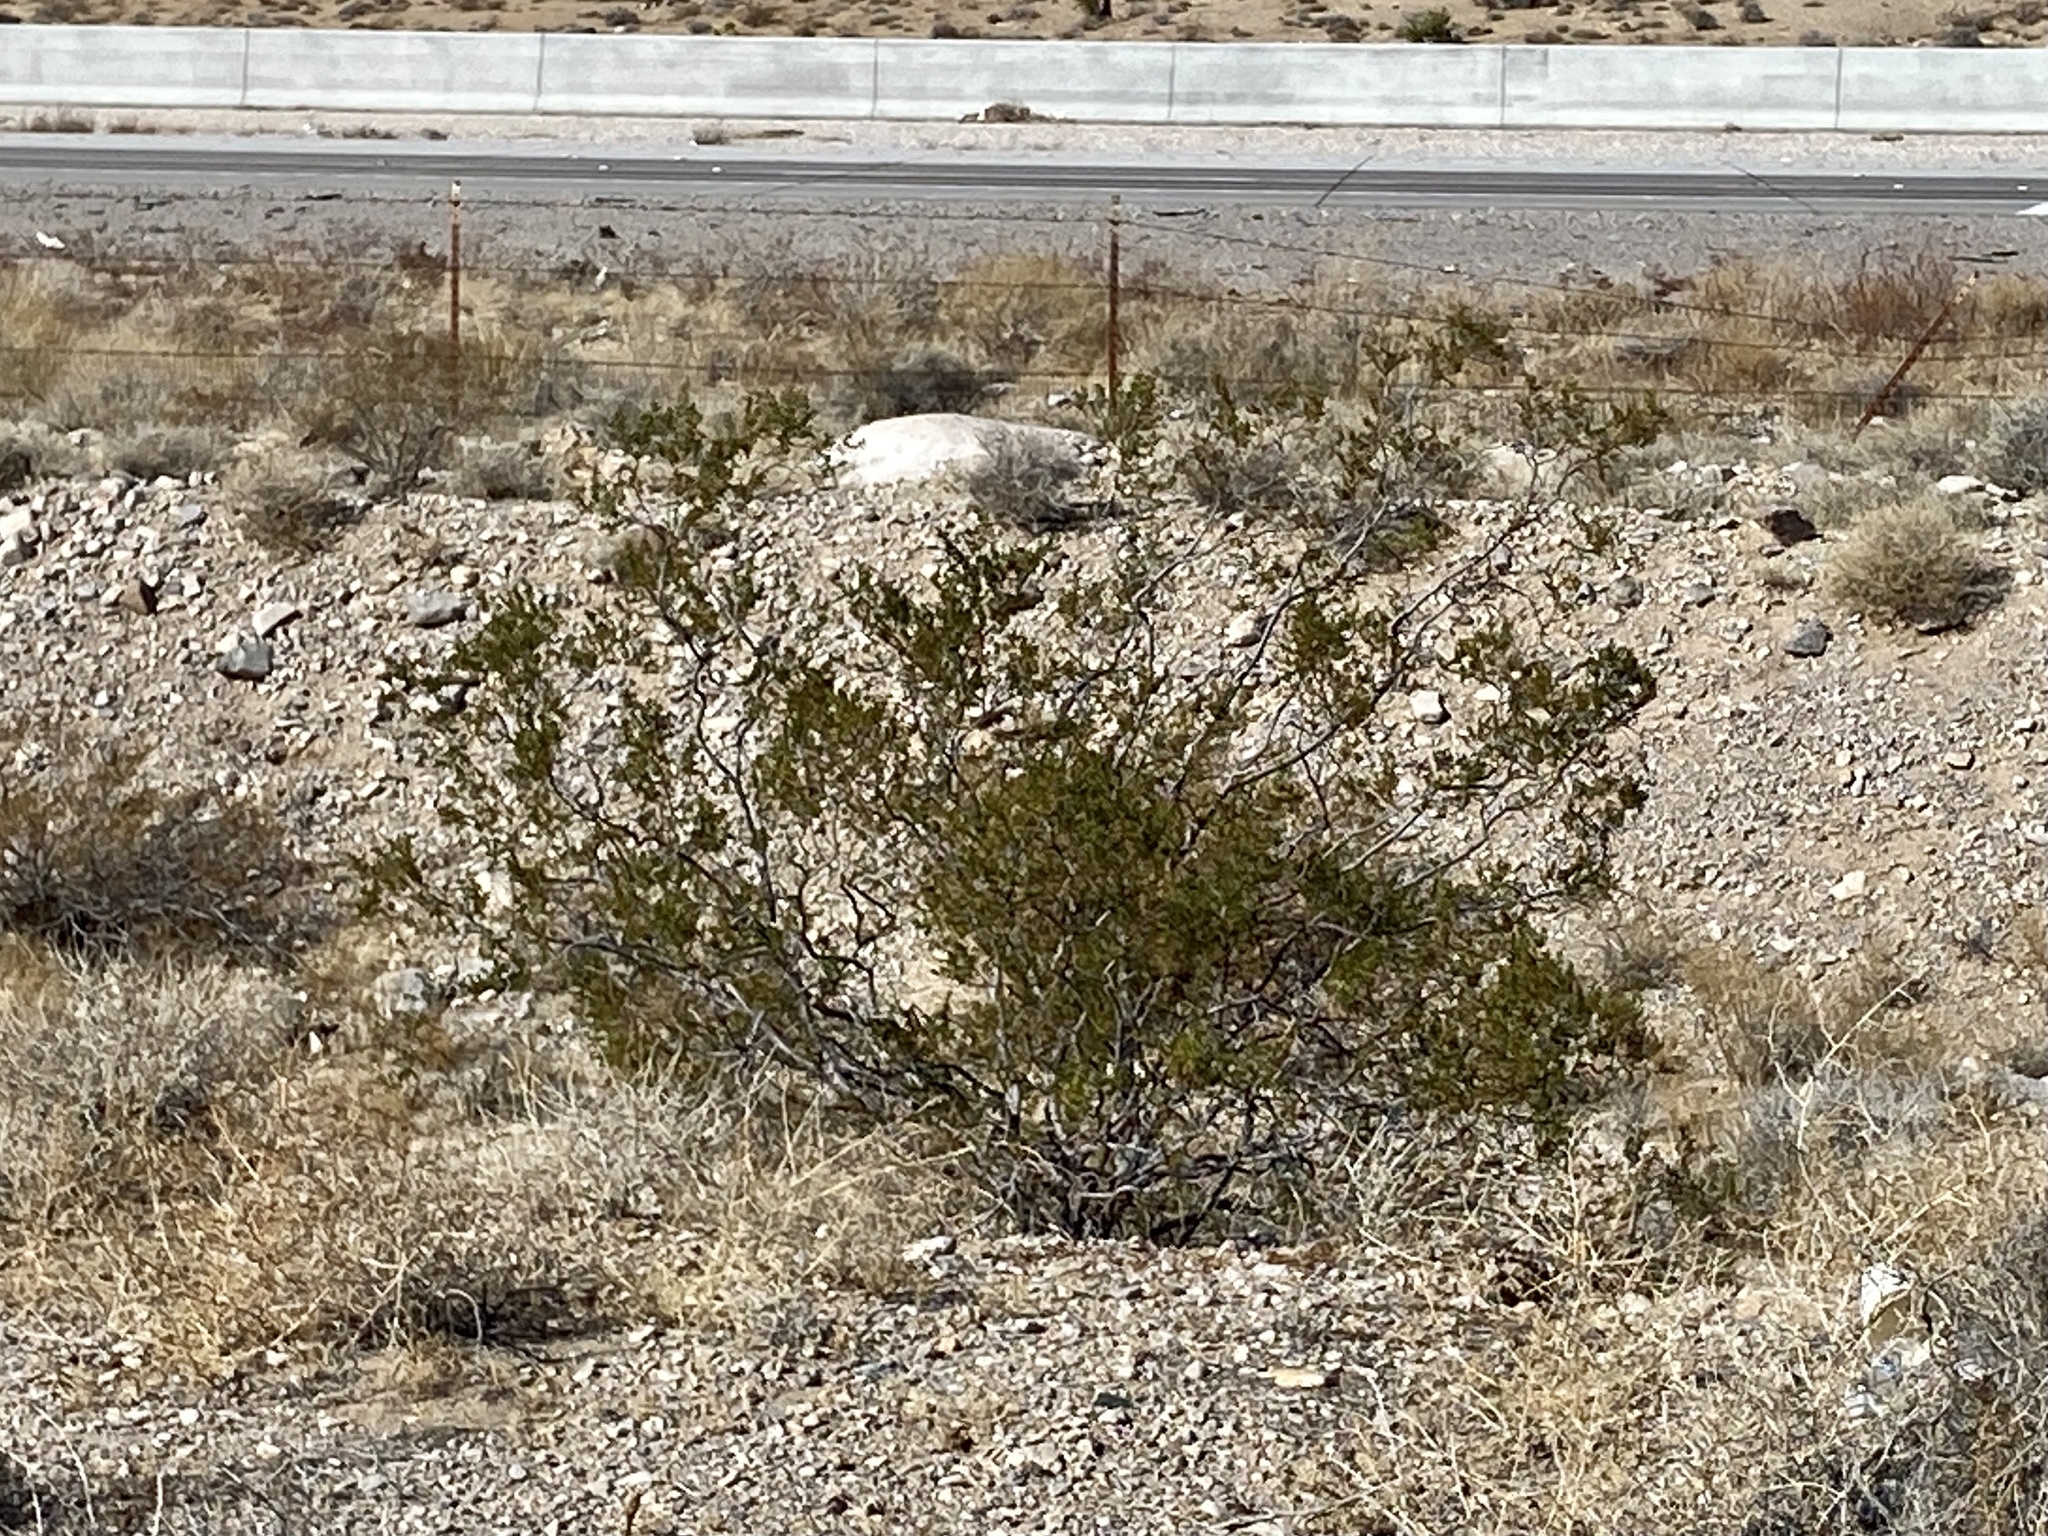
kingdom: Plantae
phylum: Tracheophyta
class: Magnoliopsida
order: Zygophyllales
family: Zygophyllaceae
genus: Larrea
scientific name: Larrea tridentata
